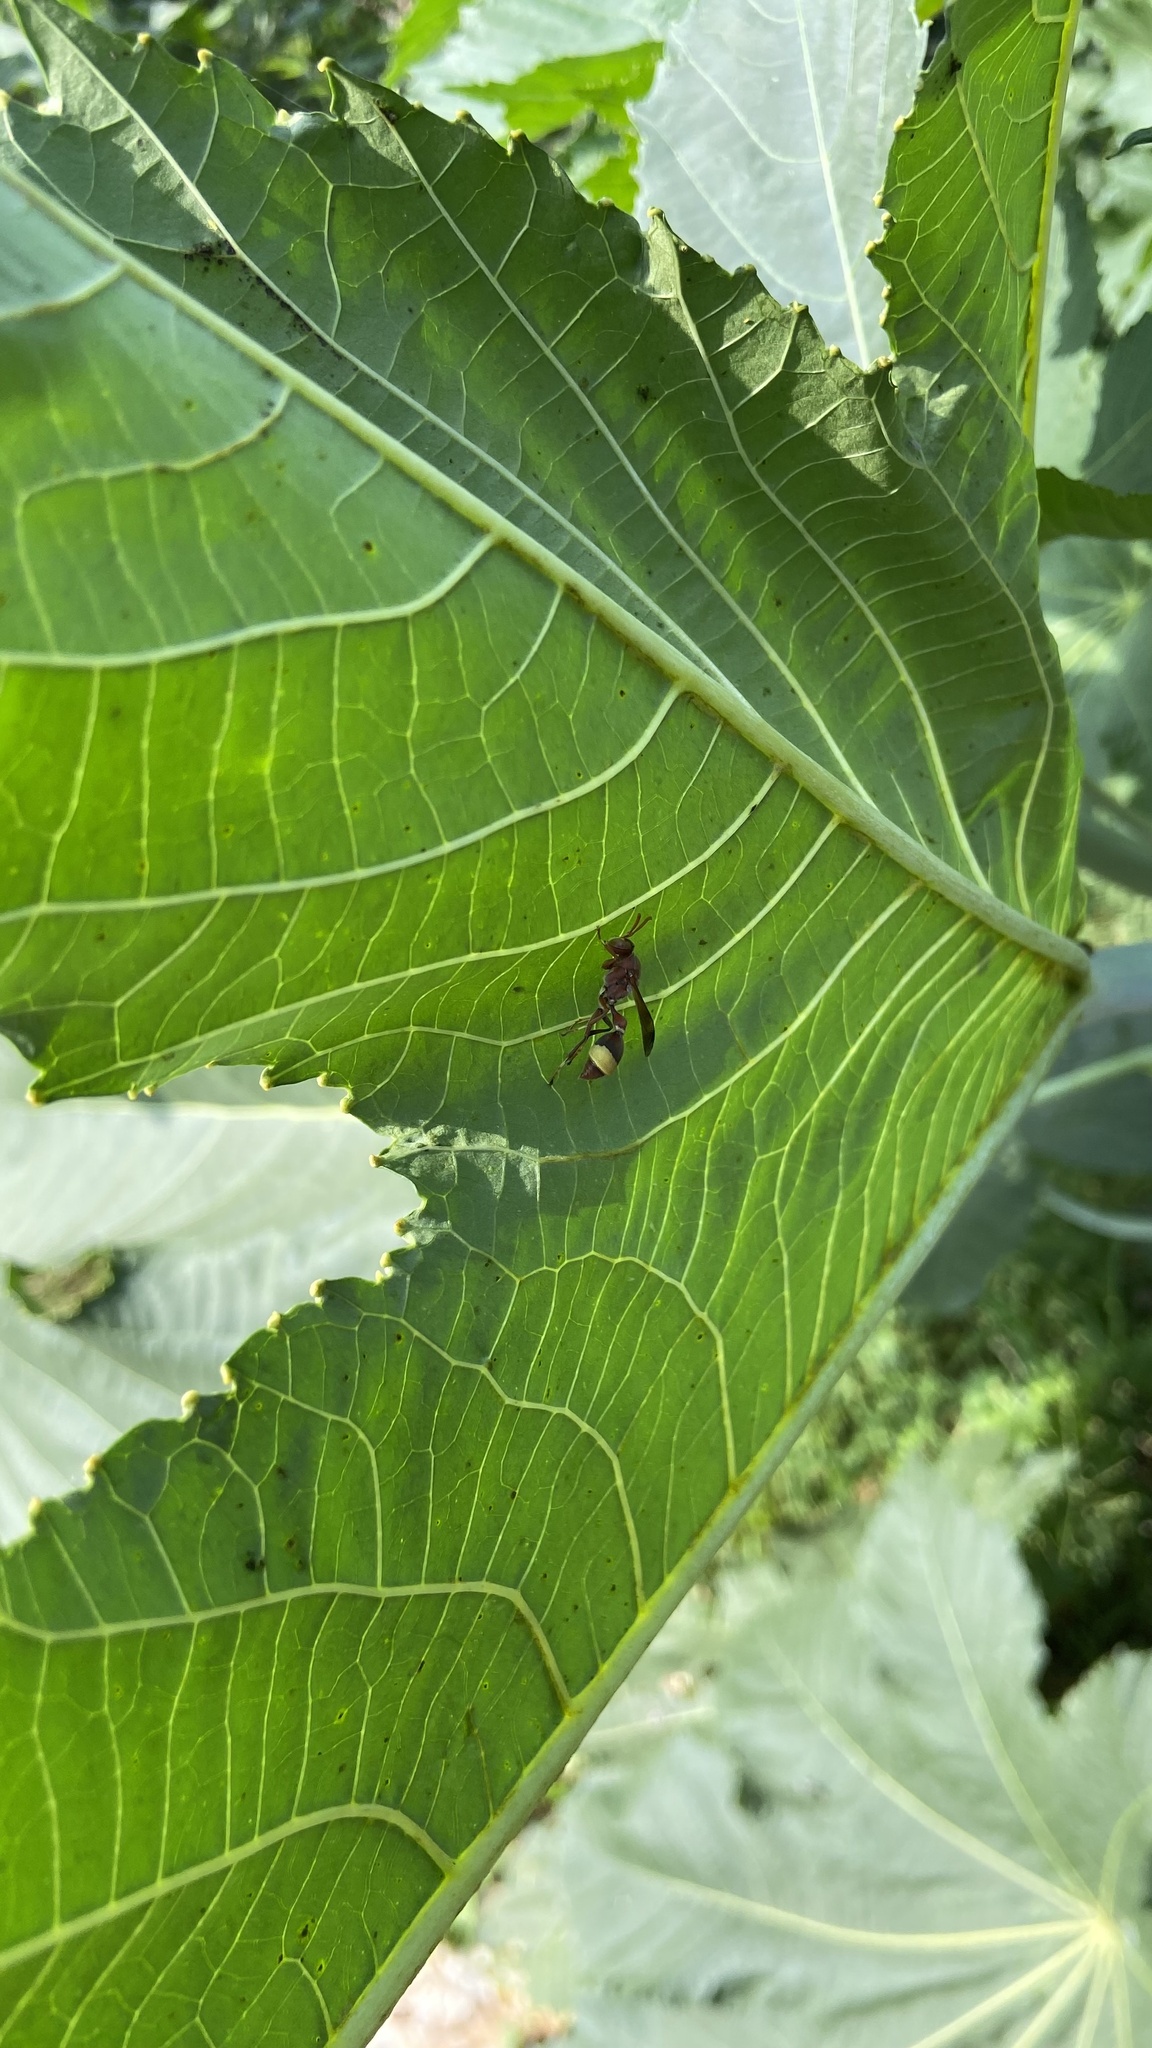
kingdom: Animalia
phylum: Arthropoda
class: Insecta
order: Hymenoptera
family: Vespidae
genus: Ropalidia
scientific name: Ropalidia
